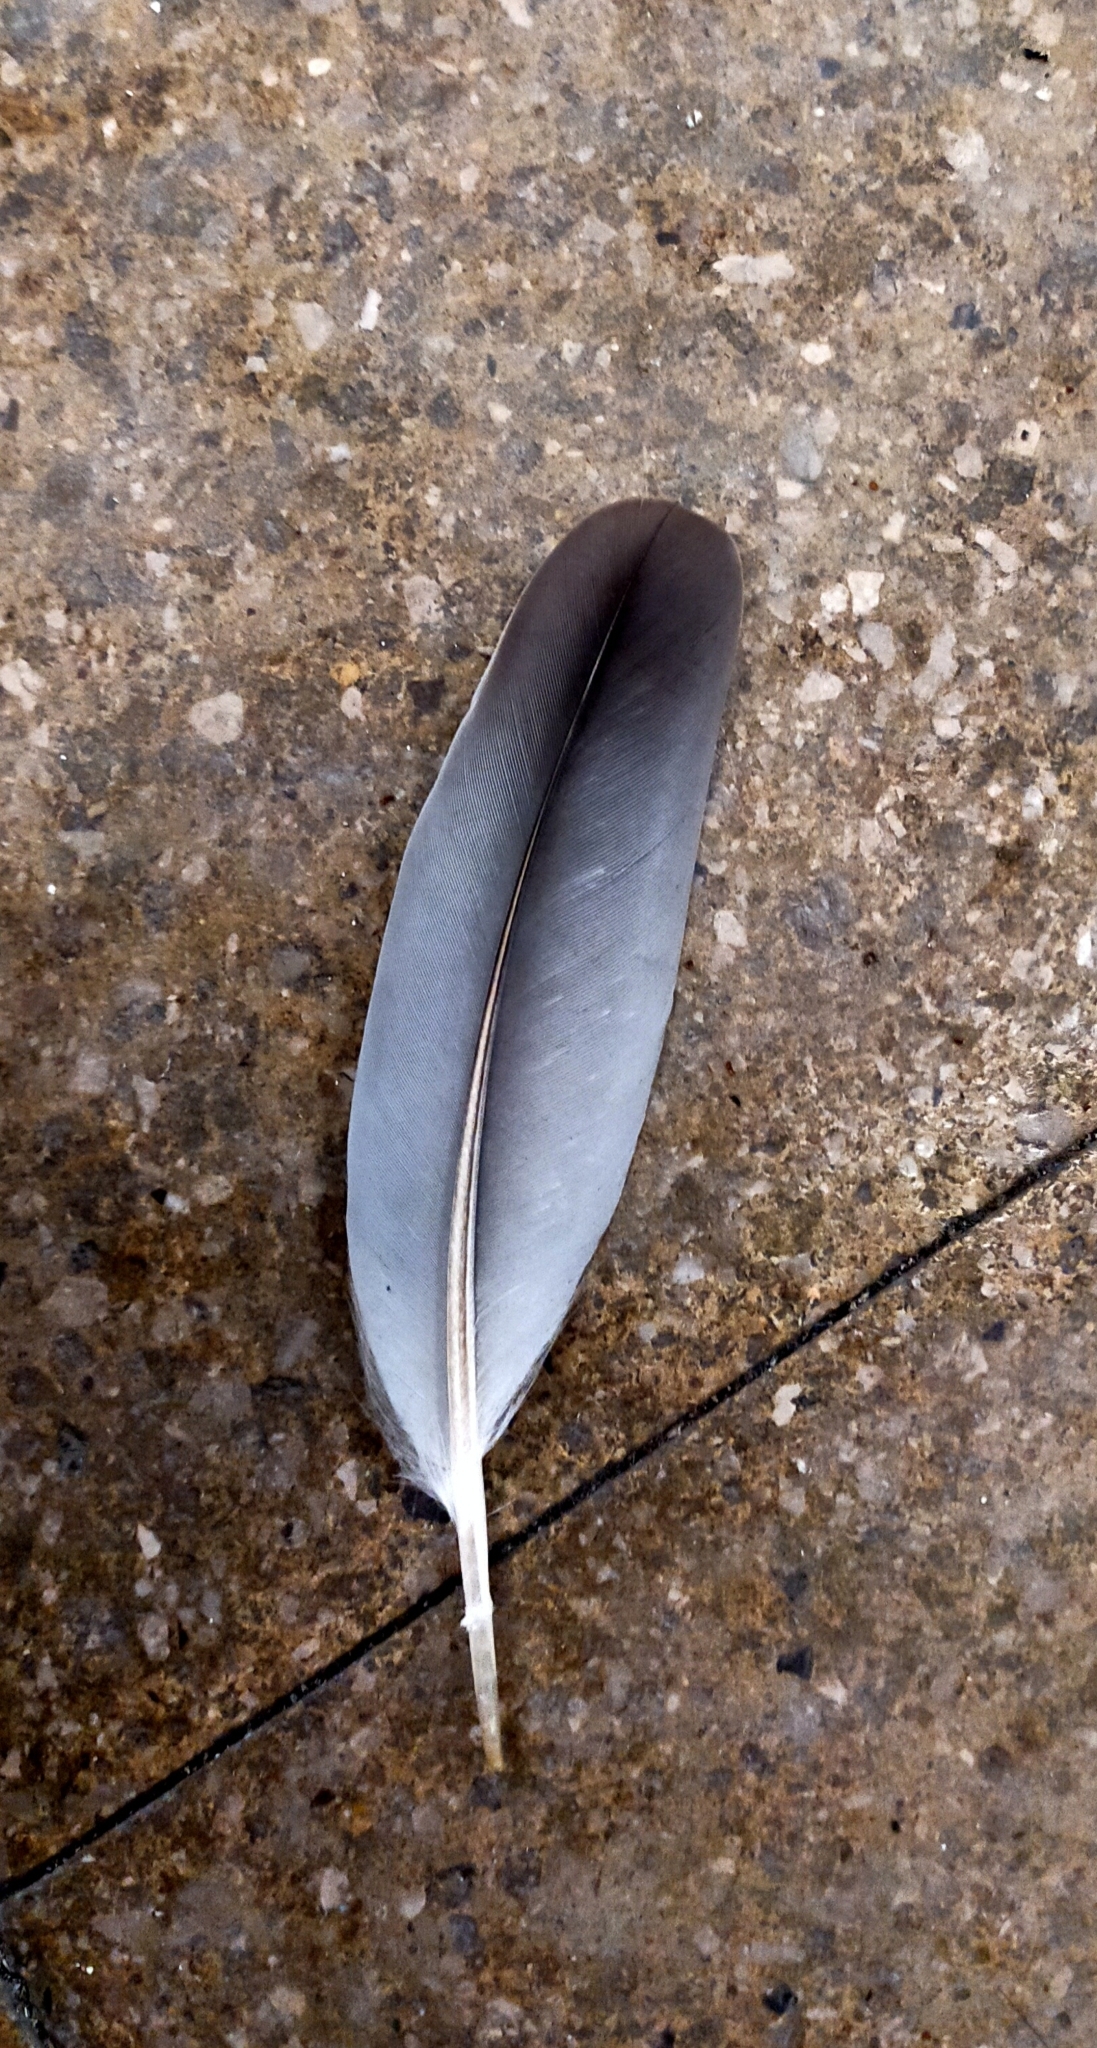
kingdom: Animalia
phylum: Chordata
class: Aves
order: Columbiformes
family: Columbidae
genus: Columba
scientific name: Columba palumbus
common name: Common wood pigeon
